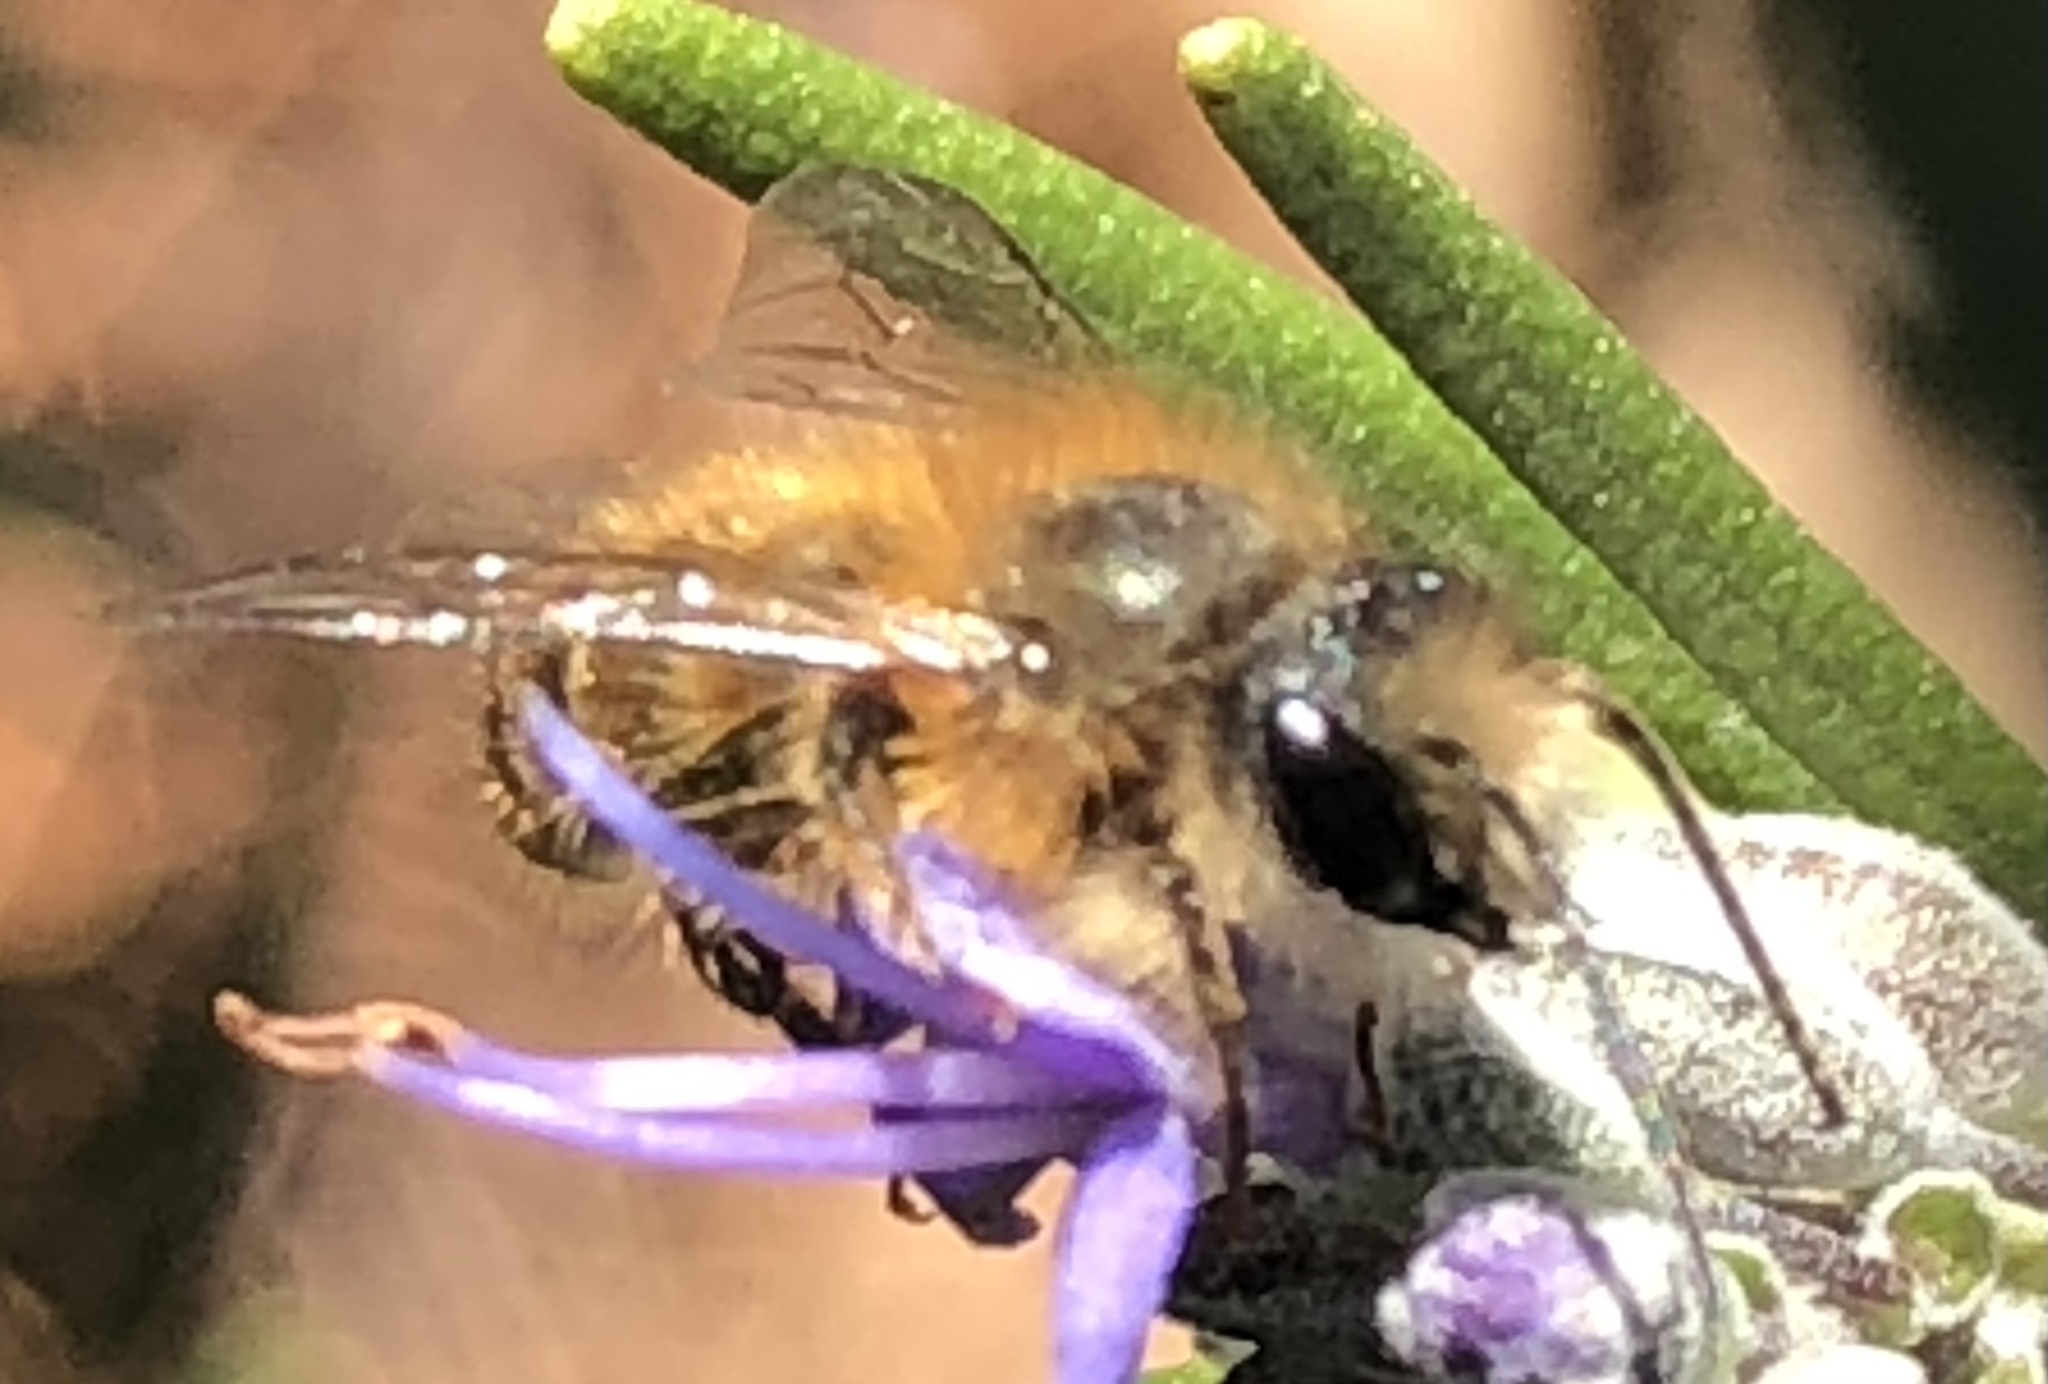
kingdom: Animalia
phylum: Arthropoda
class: Insecta
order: Hymenoptera
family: Megachilidae
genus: Osmia
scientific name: Osmia taurus
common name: Taurus mason bee
